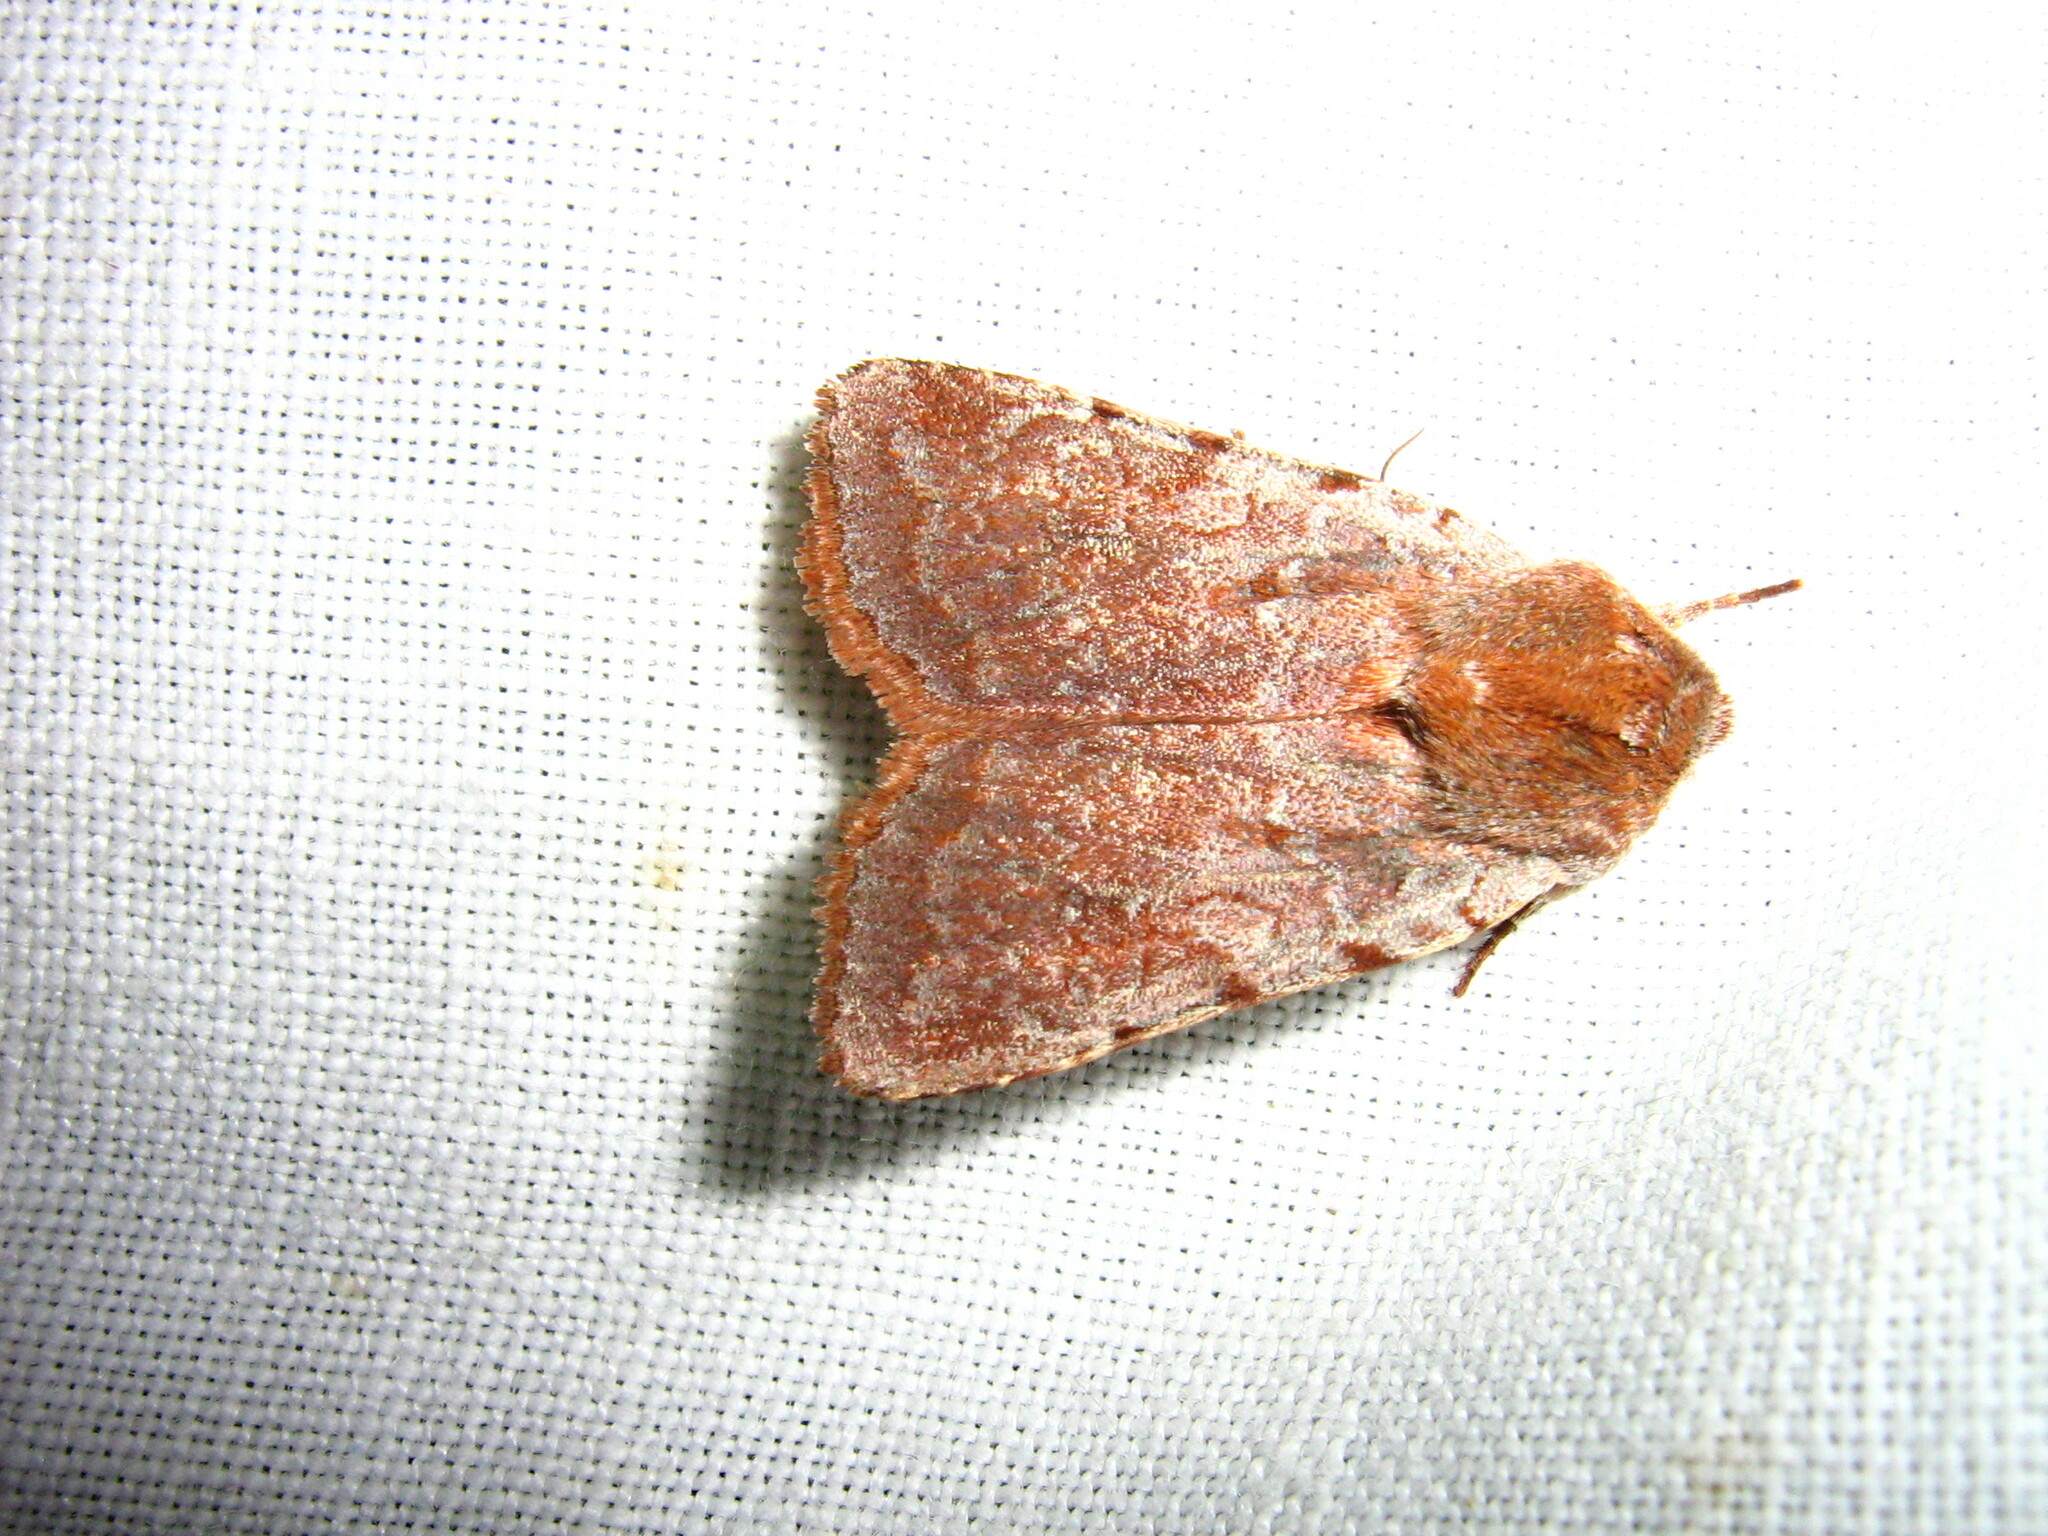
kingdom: Animalia
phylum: Arthropoda
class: Insecta
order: Lepidoptera
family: Noctuidae
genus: Cerastis
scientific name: Cerastis rubricosa
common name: Red chestnut
